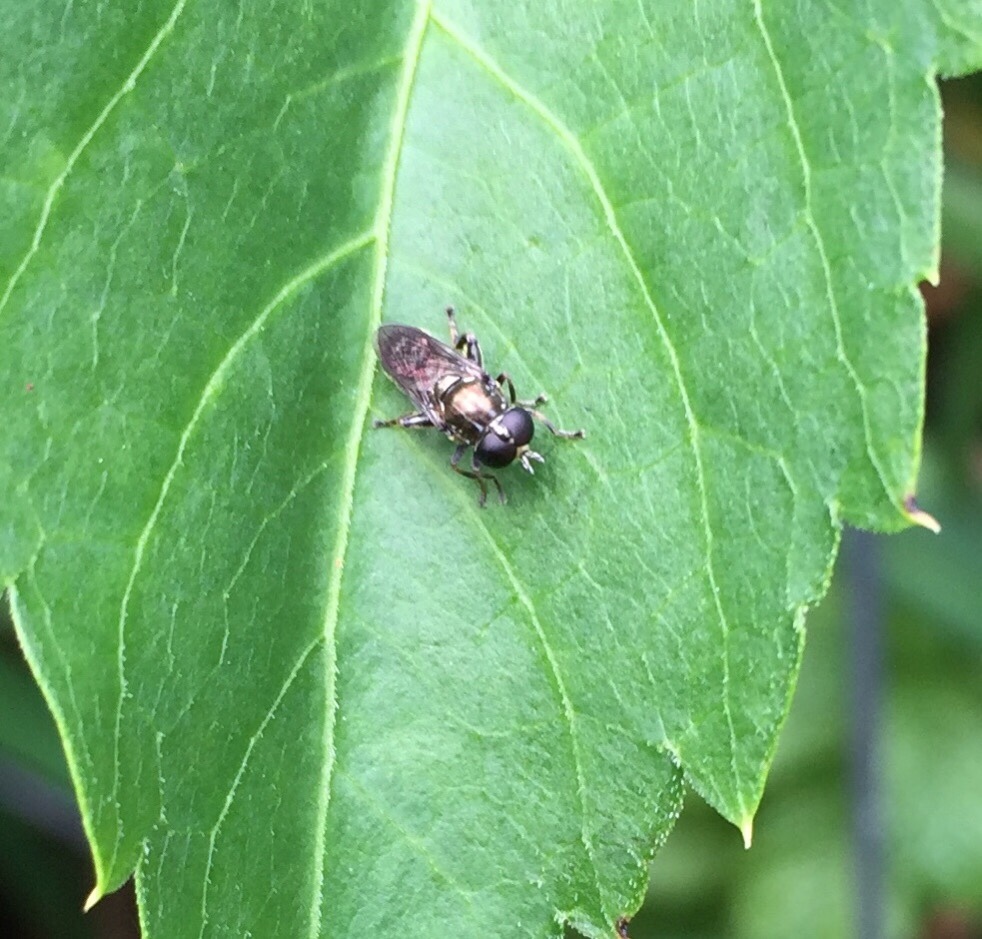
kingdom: Animalia
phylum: Arthropoda
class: Insecta
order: Diptera
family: Syrphidae
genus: Eumerus
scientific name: Eumerus
